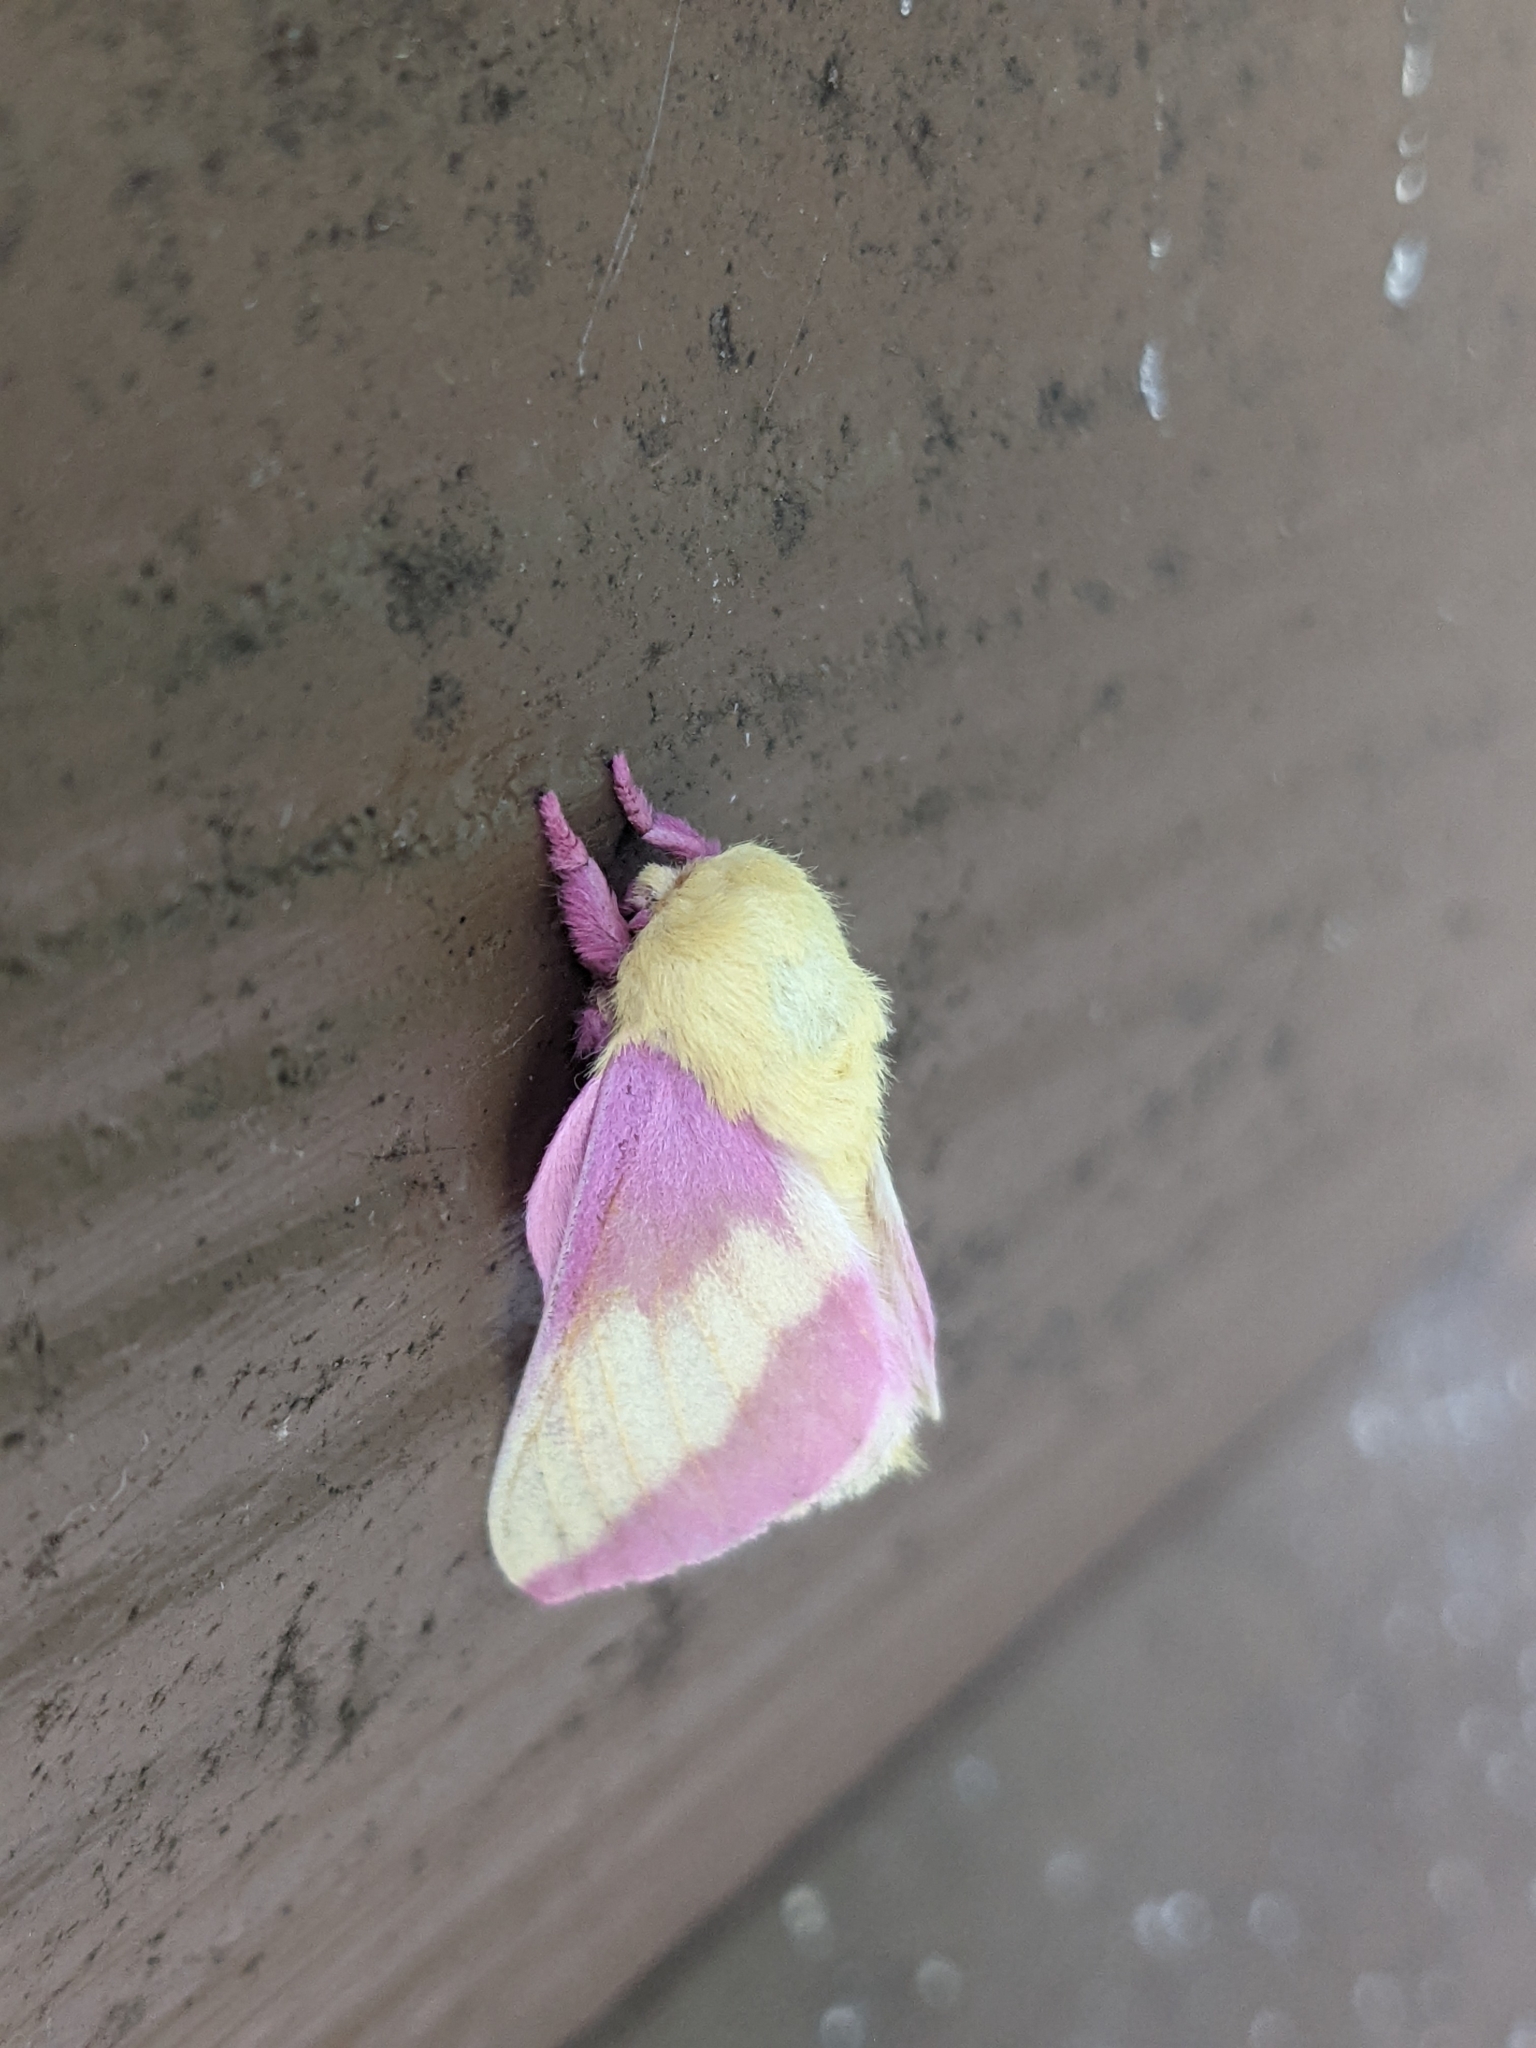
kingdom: Animalia
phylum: Arthropoda
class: Insecta
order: Lepidoptera
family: Saturniidae
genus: Dryocampa
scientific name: Dryocampa rubicunda
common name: Rosy maple moth
